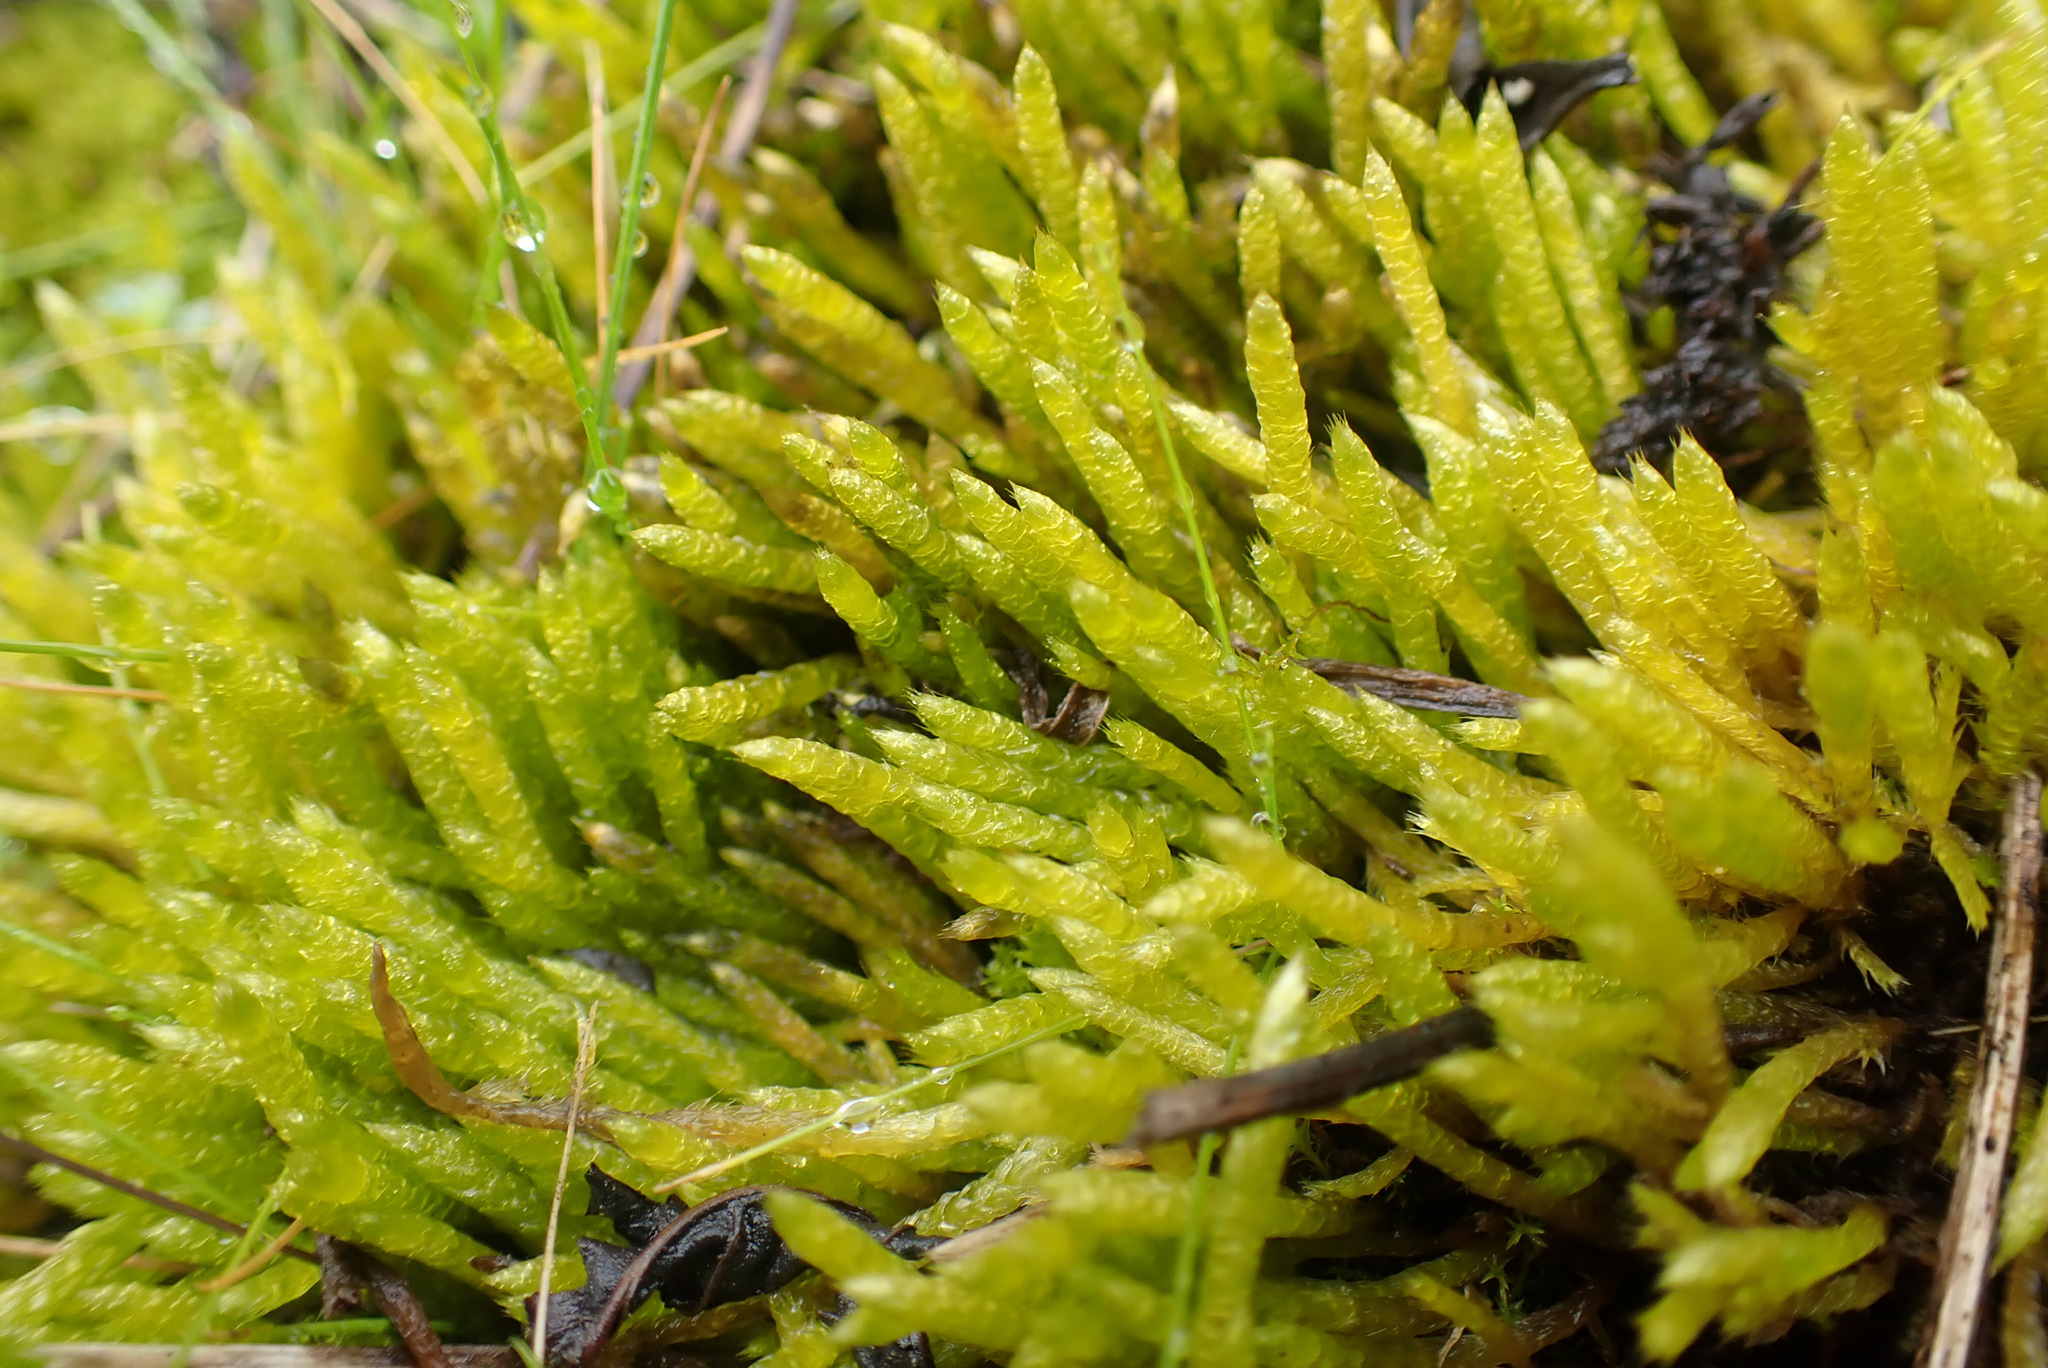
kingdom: Plantae
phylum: Bryophyta
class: Bryopsida
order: Hypnales
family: Brachytheciaceae
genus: Brachythecium
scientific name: Brachythecium albicans
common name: Whitish ragged moss
